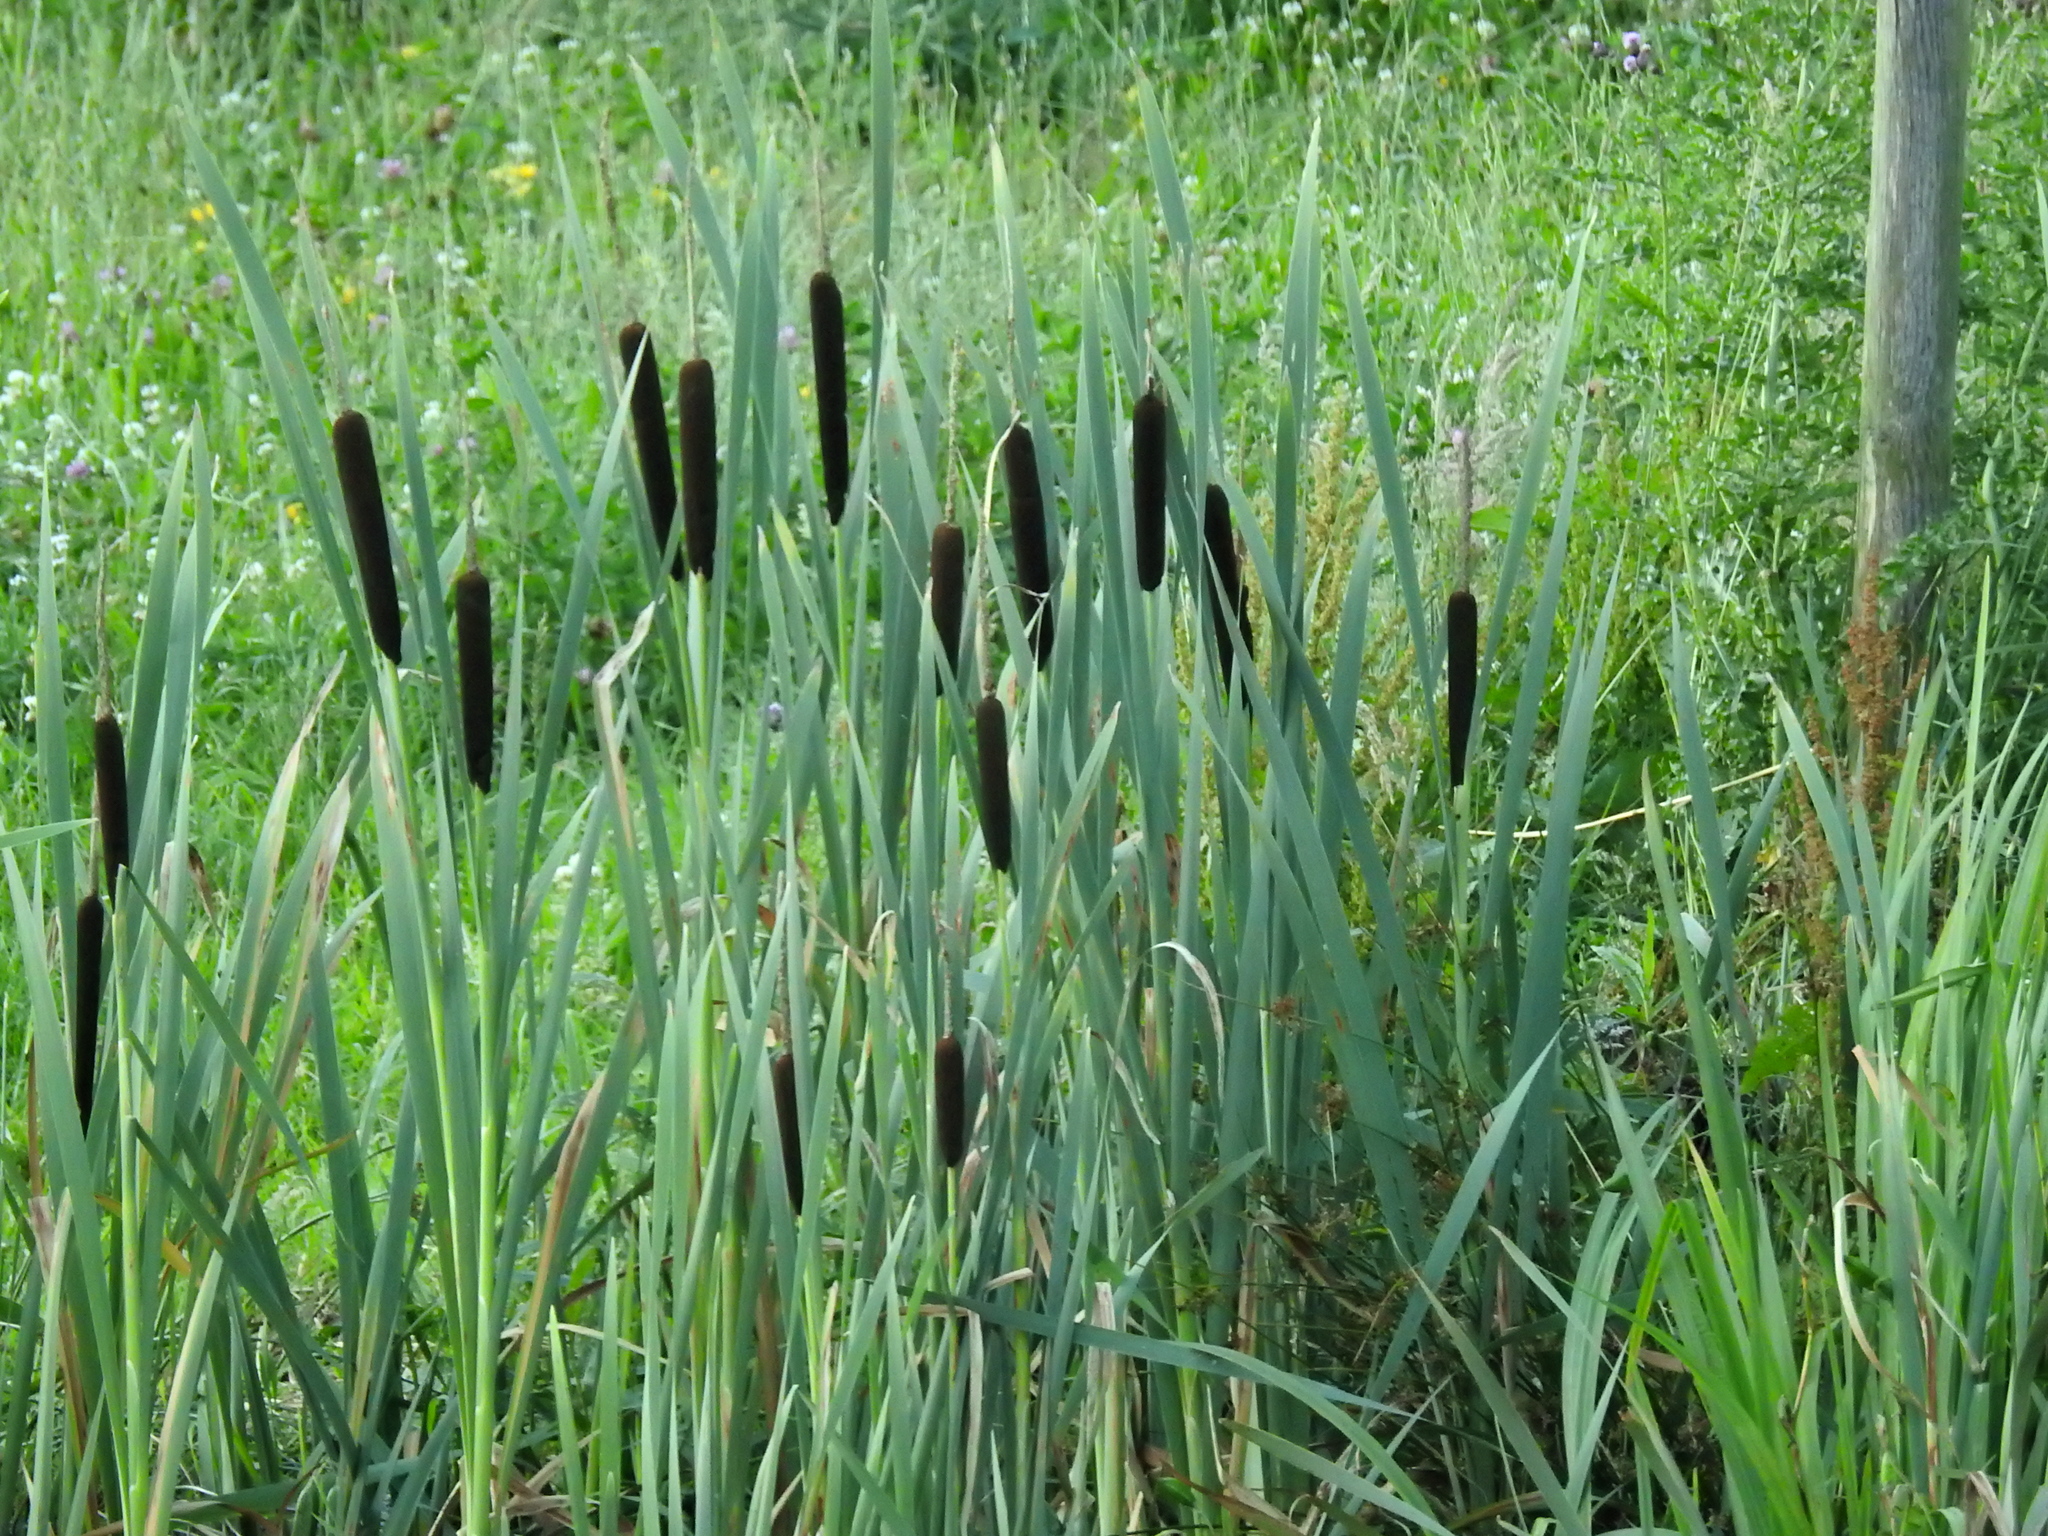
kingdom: Plantae
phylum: Tracheophyta
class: Liliopsida
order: Poales
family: Typhaceae
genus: Typha
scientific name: Typha latifolia
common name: Broadleaf cattail
